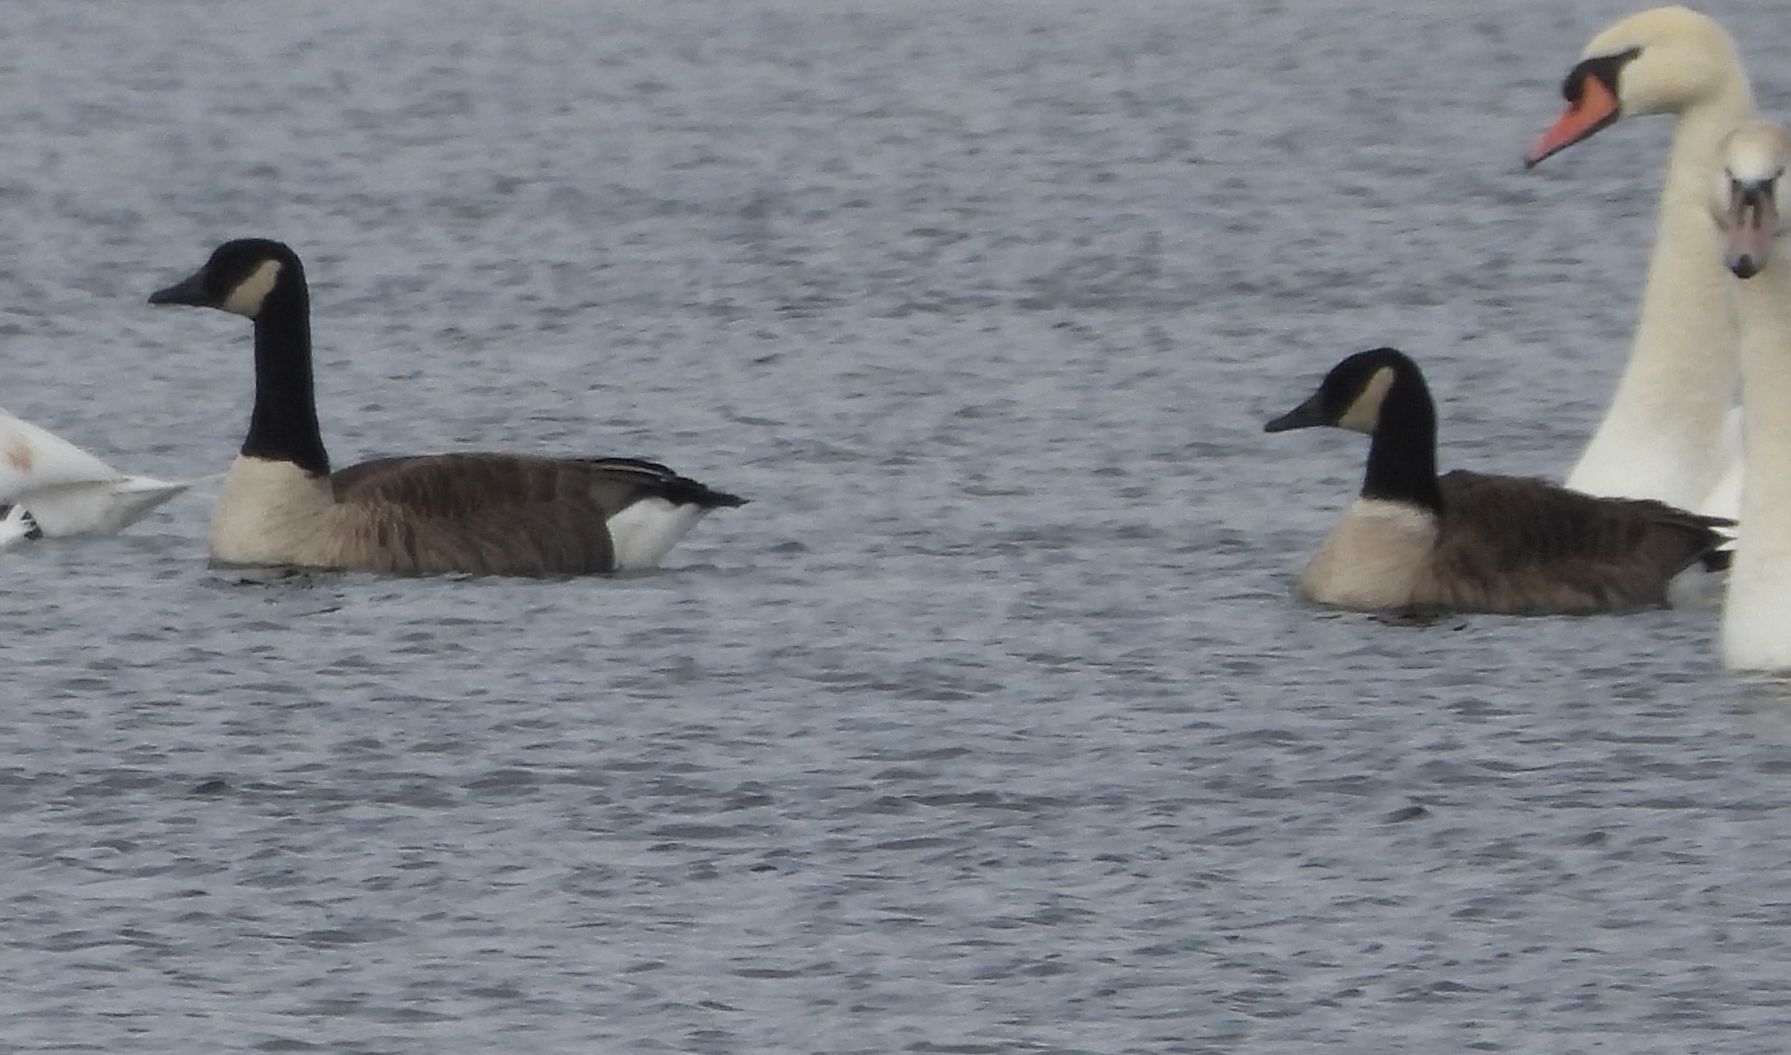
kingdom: Animalia
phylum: Chordata
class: Aves
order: Anseriformes
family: Anatidae
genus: Branta
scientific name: Branta canadensis
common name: Canada goose
